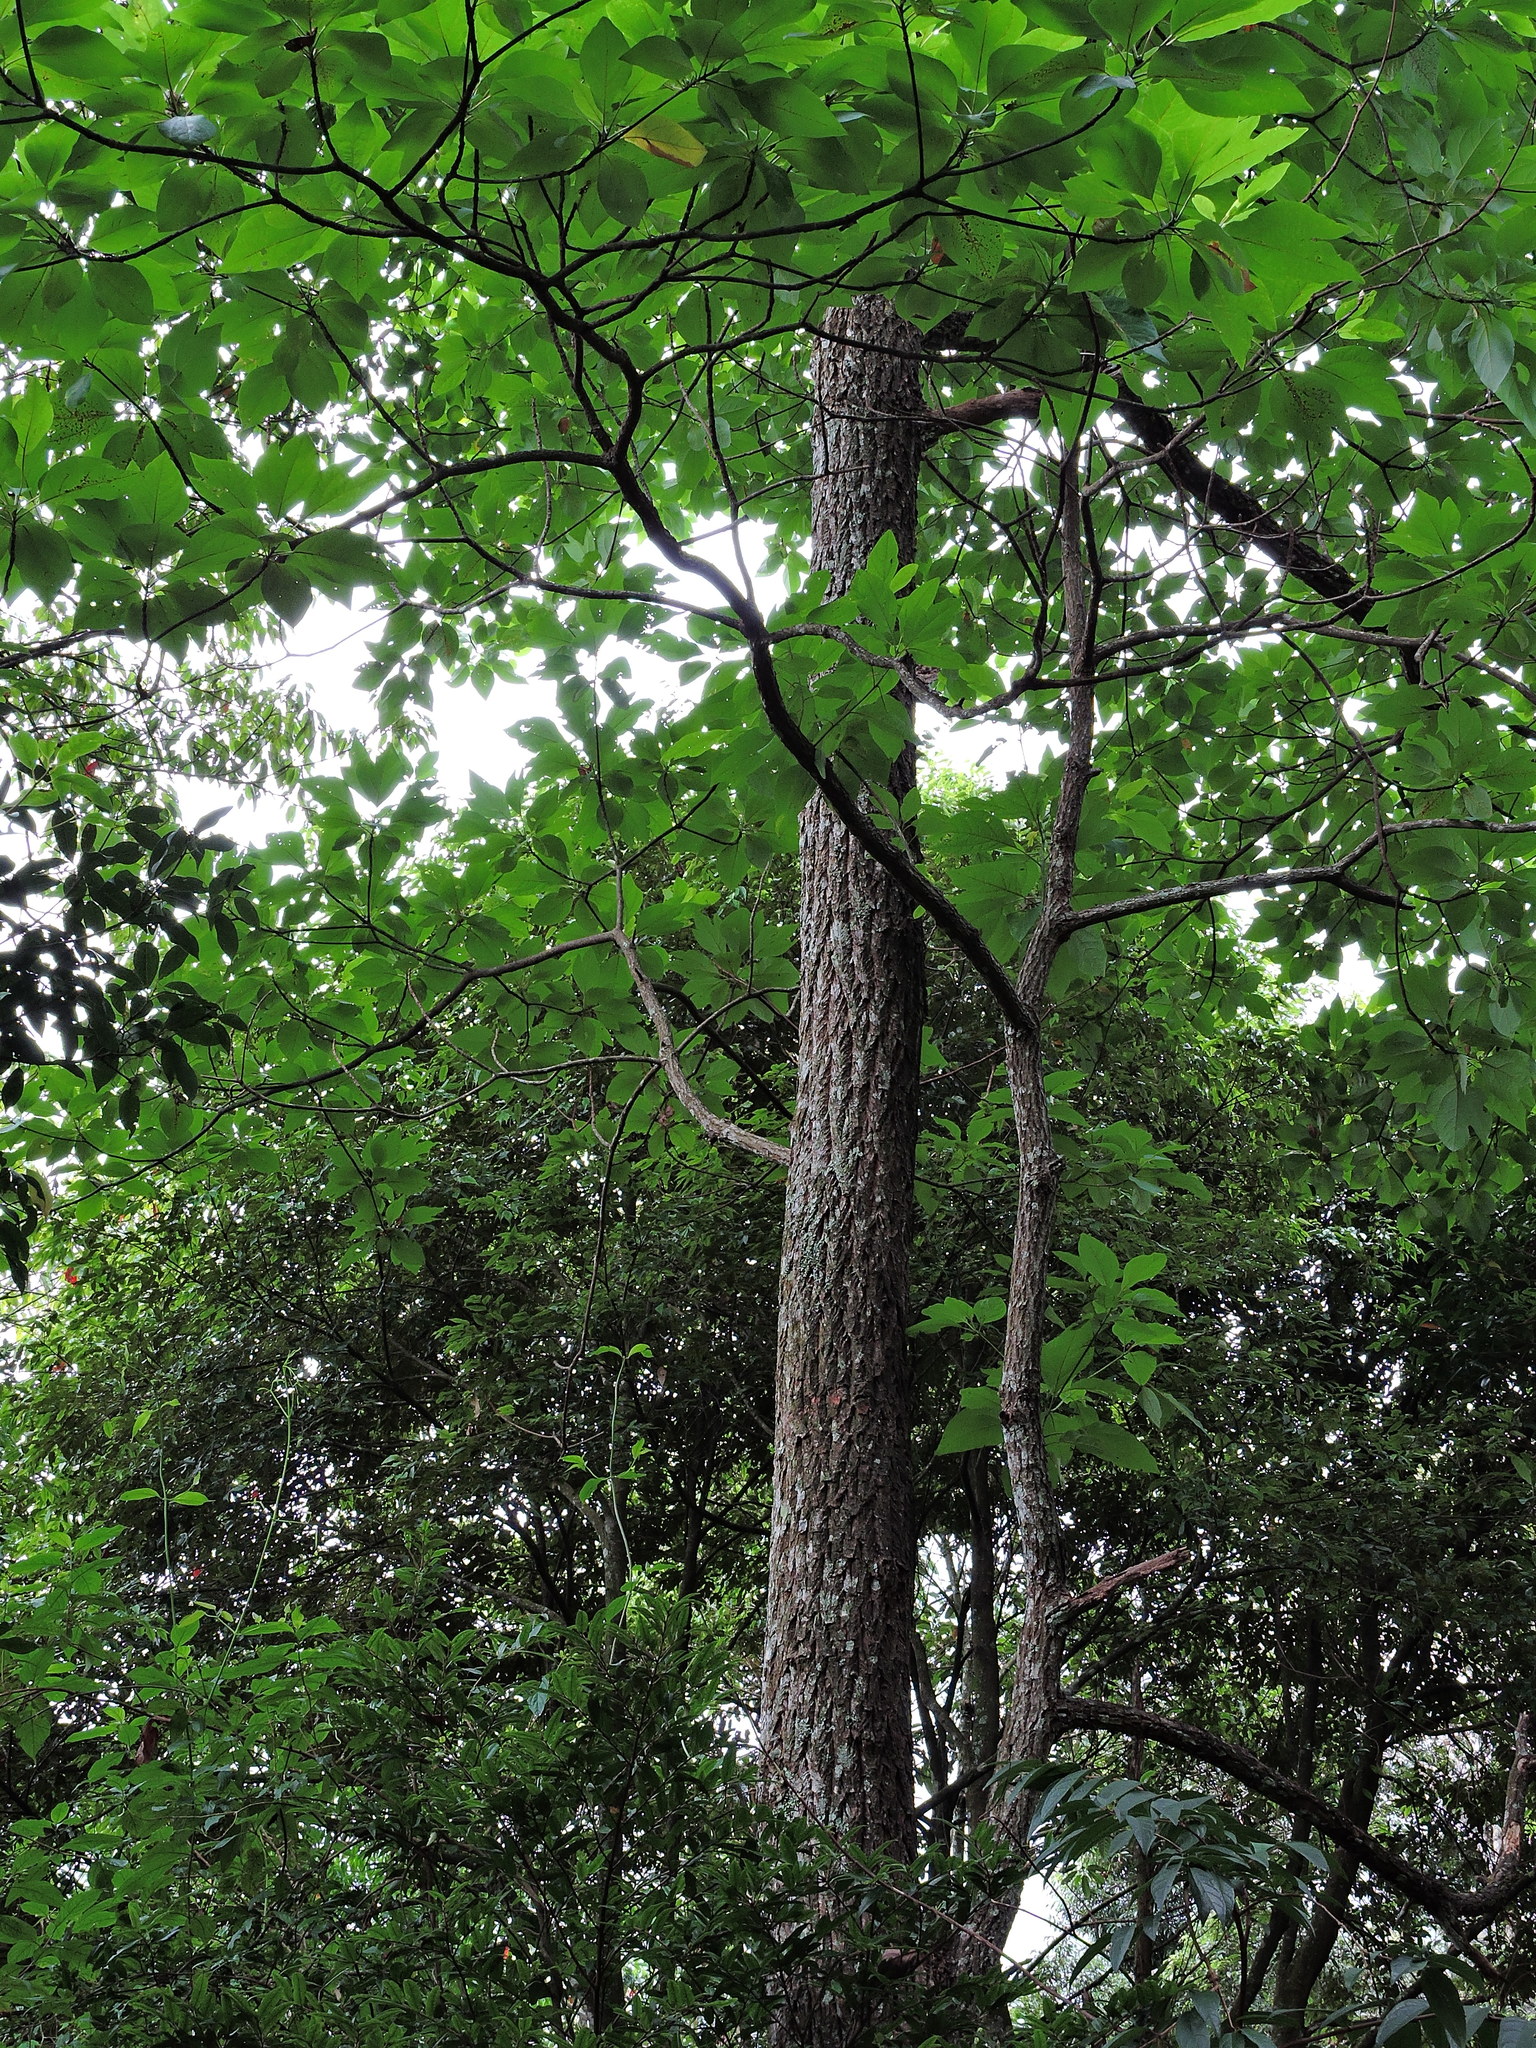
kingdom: Plantae
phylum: Tracheophyta
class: Magnoliopsida
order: Laurales
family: Lauraceae
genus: Sassafras
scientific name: Sassafras randaiense
